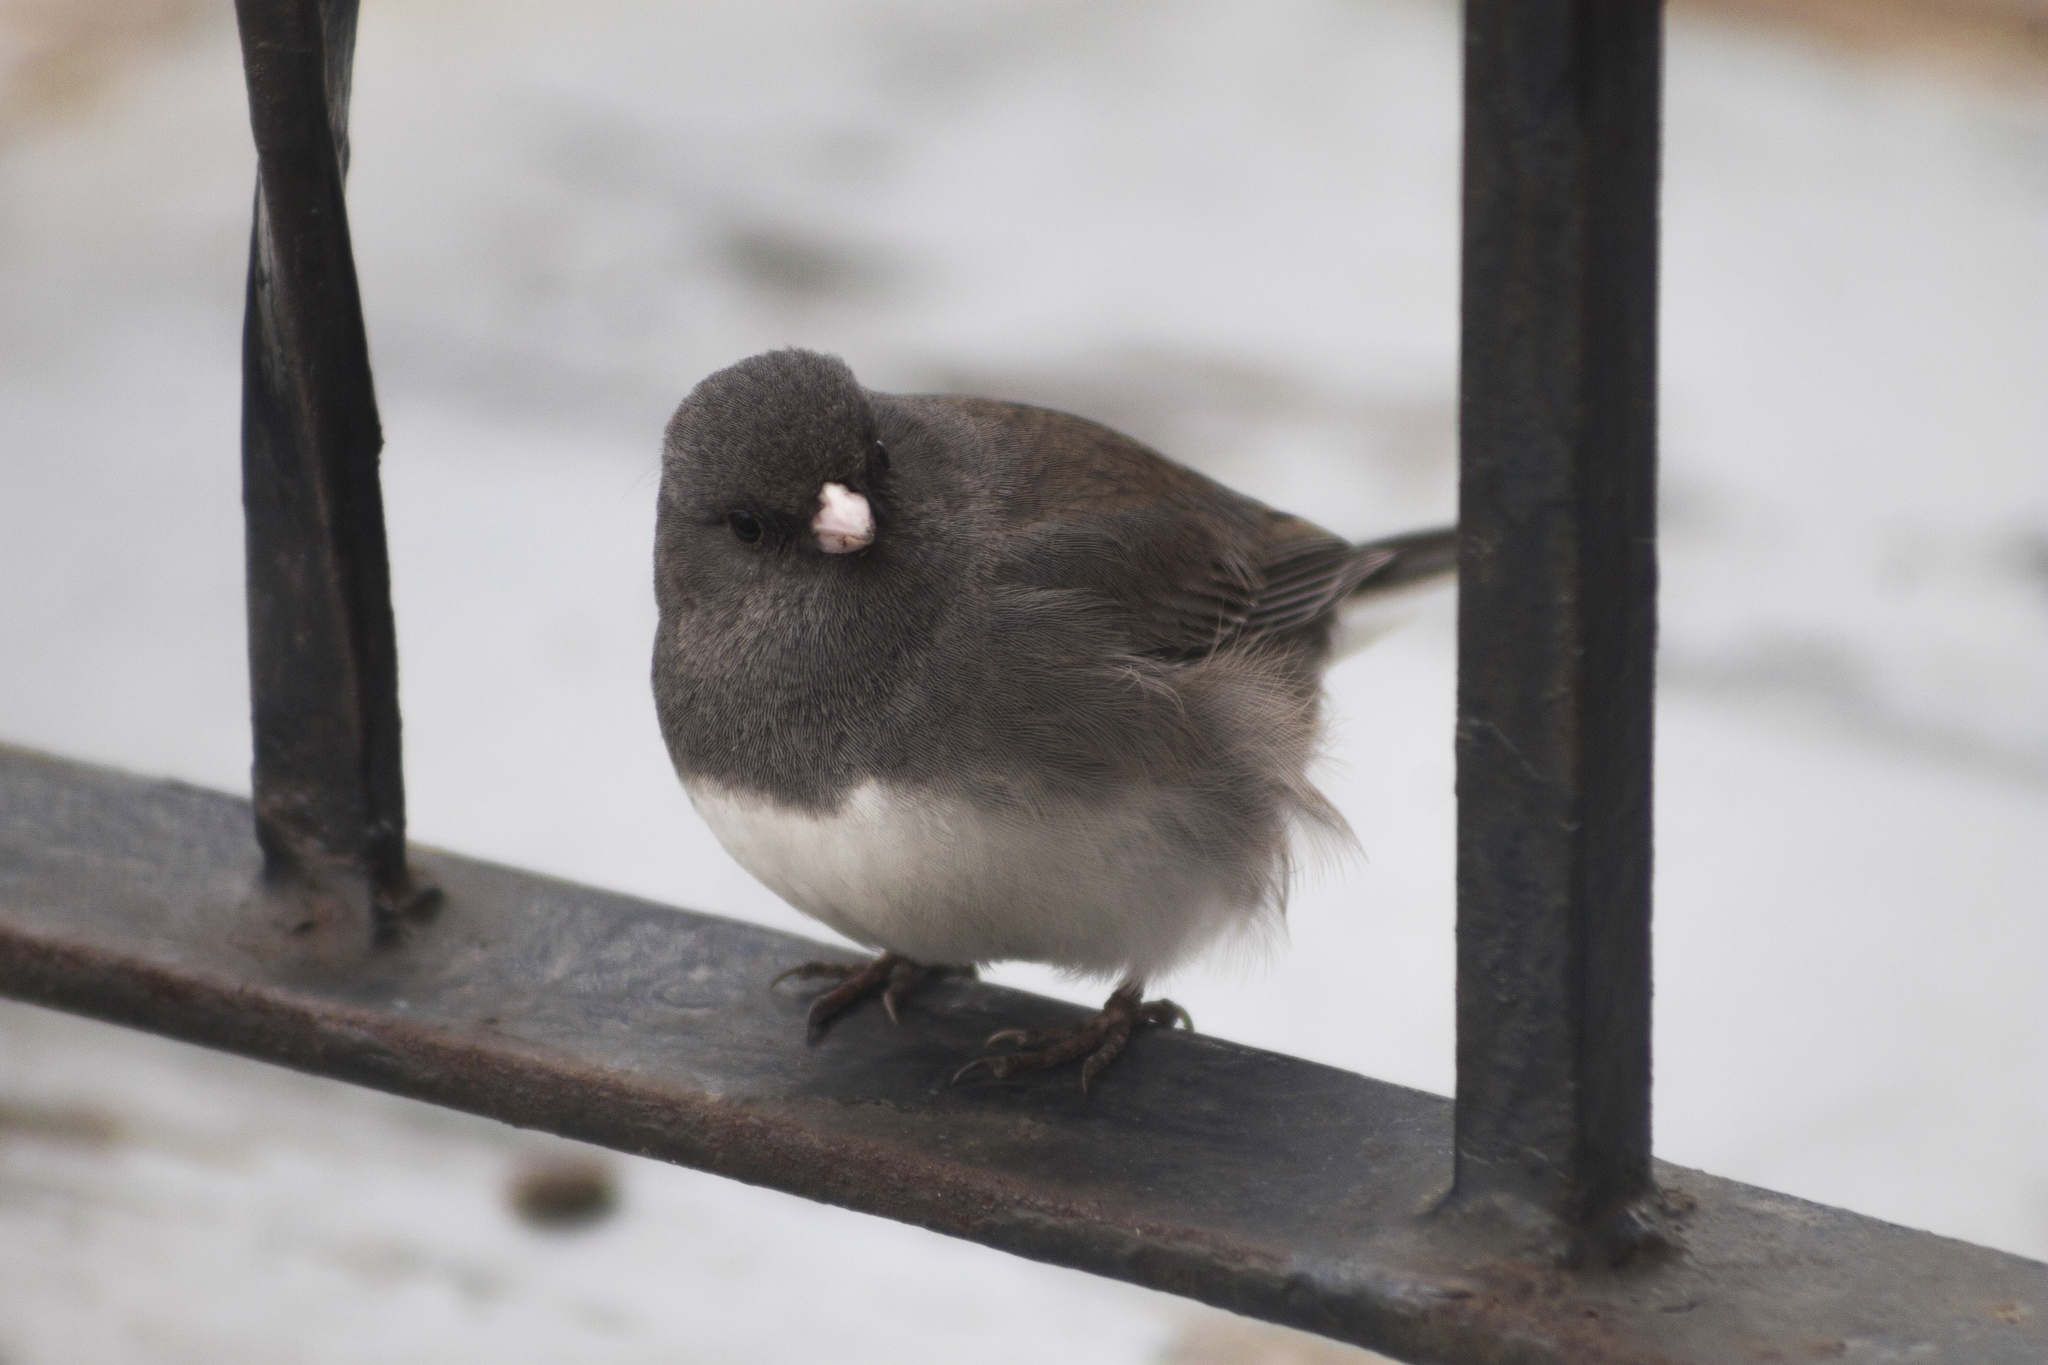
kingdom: Animalia
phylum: Chordata
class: Aves
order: Passeriformes
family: Passerellidae
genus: Junco
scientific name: Junco hyemalis
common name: Dark-eyed junco
